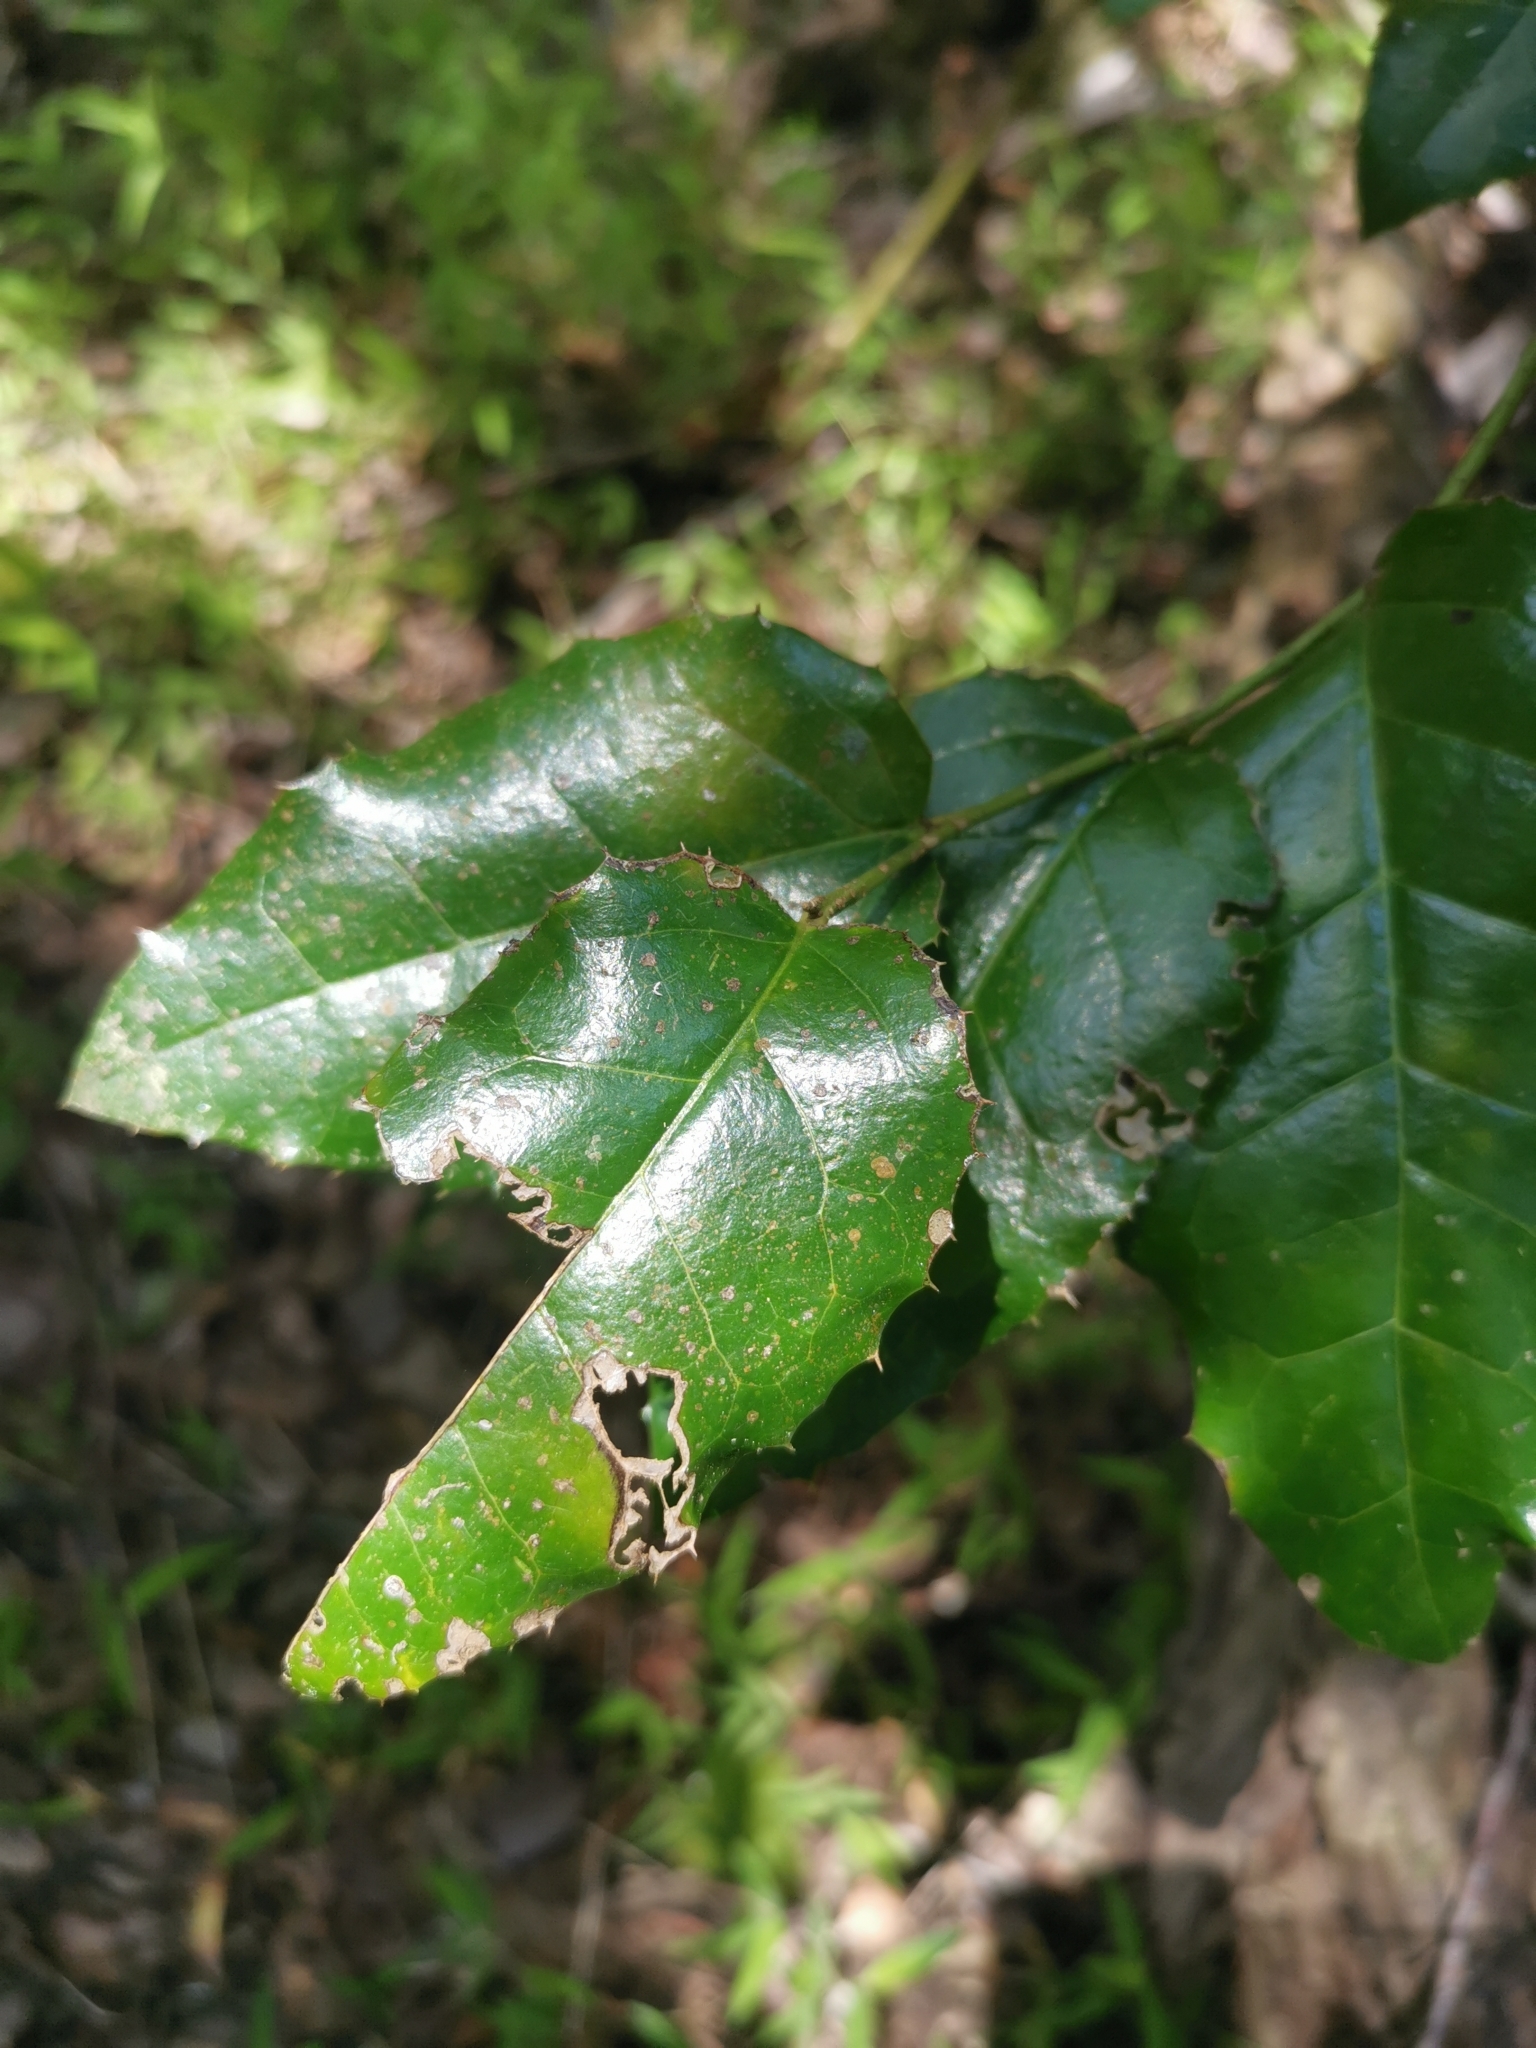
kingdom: Plantae
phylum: Tracheophyta
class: Magnoliopsida
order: Cardiopteridales
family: Cardiopteridaceae
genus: Citronella
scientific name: Citronella mucronata
